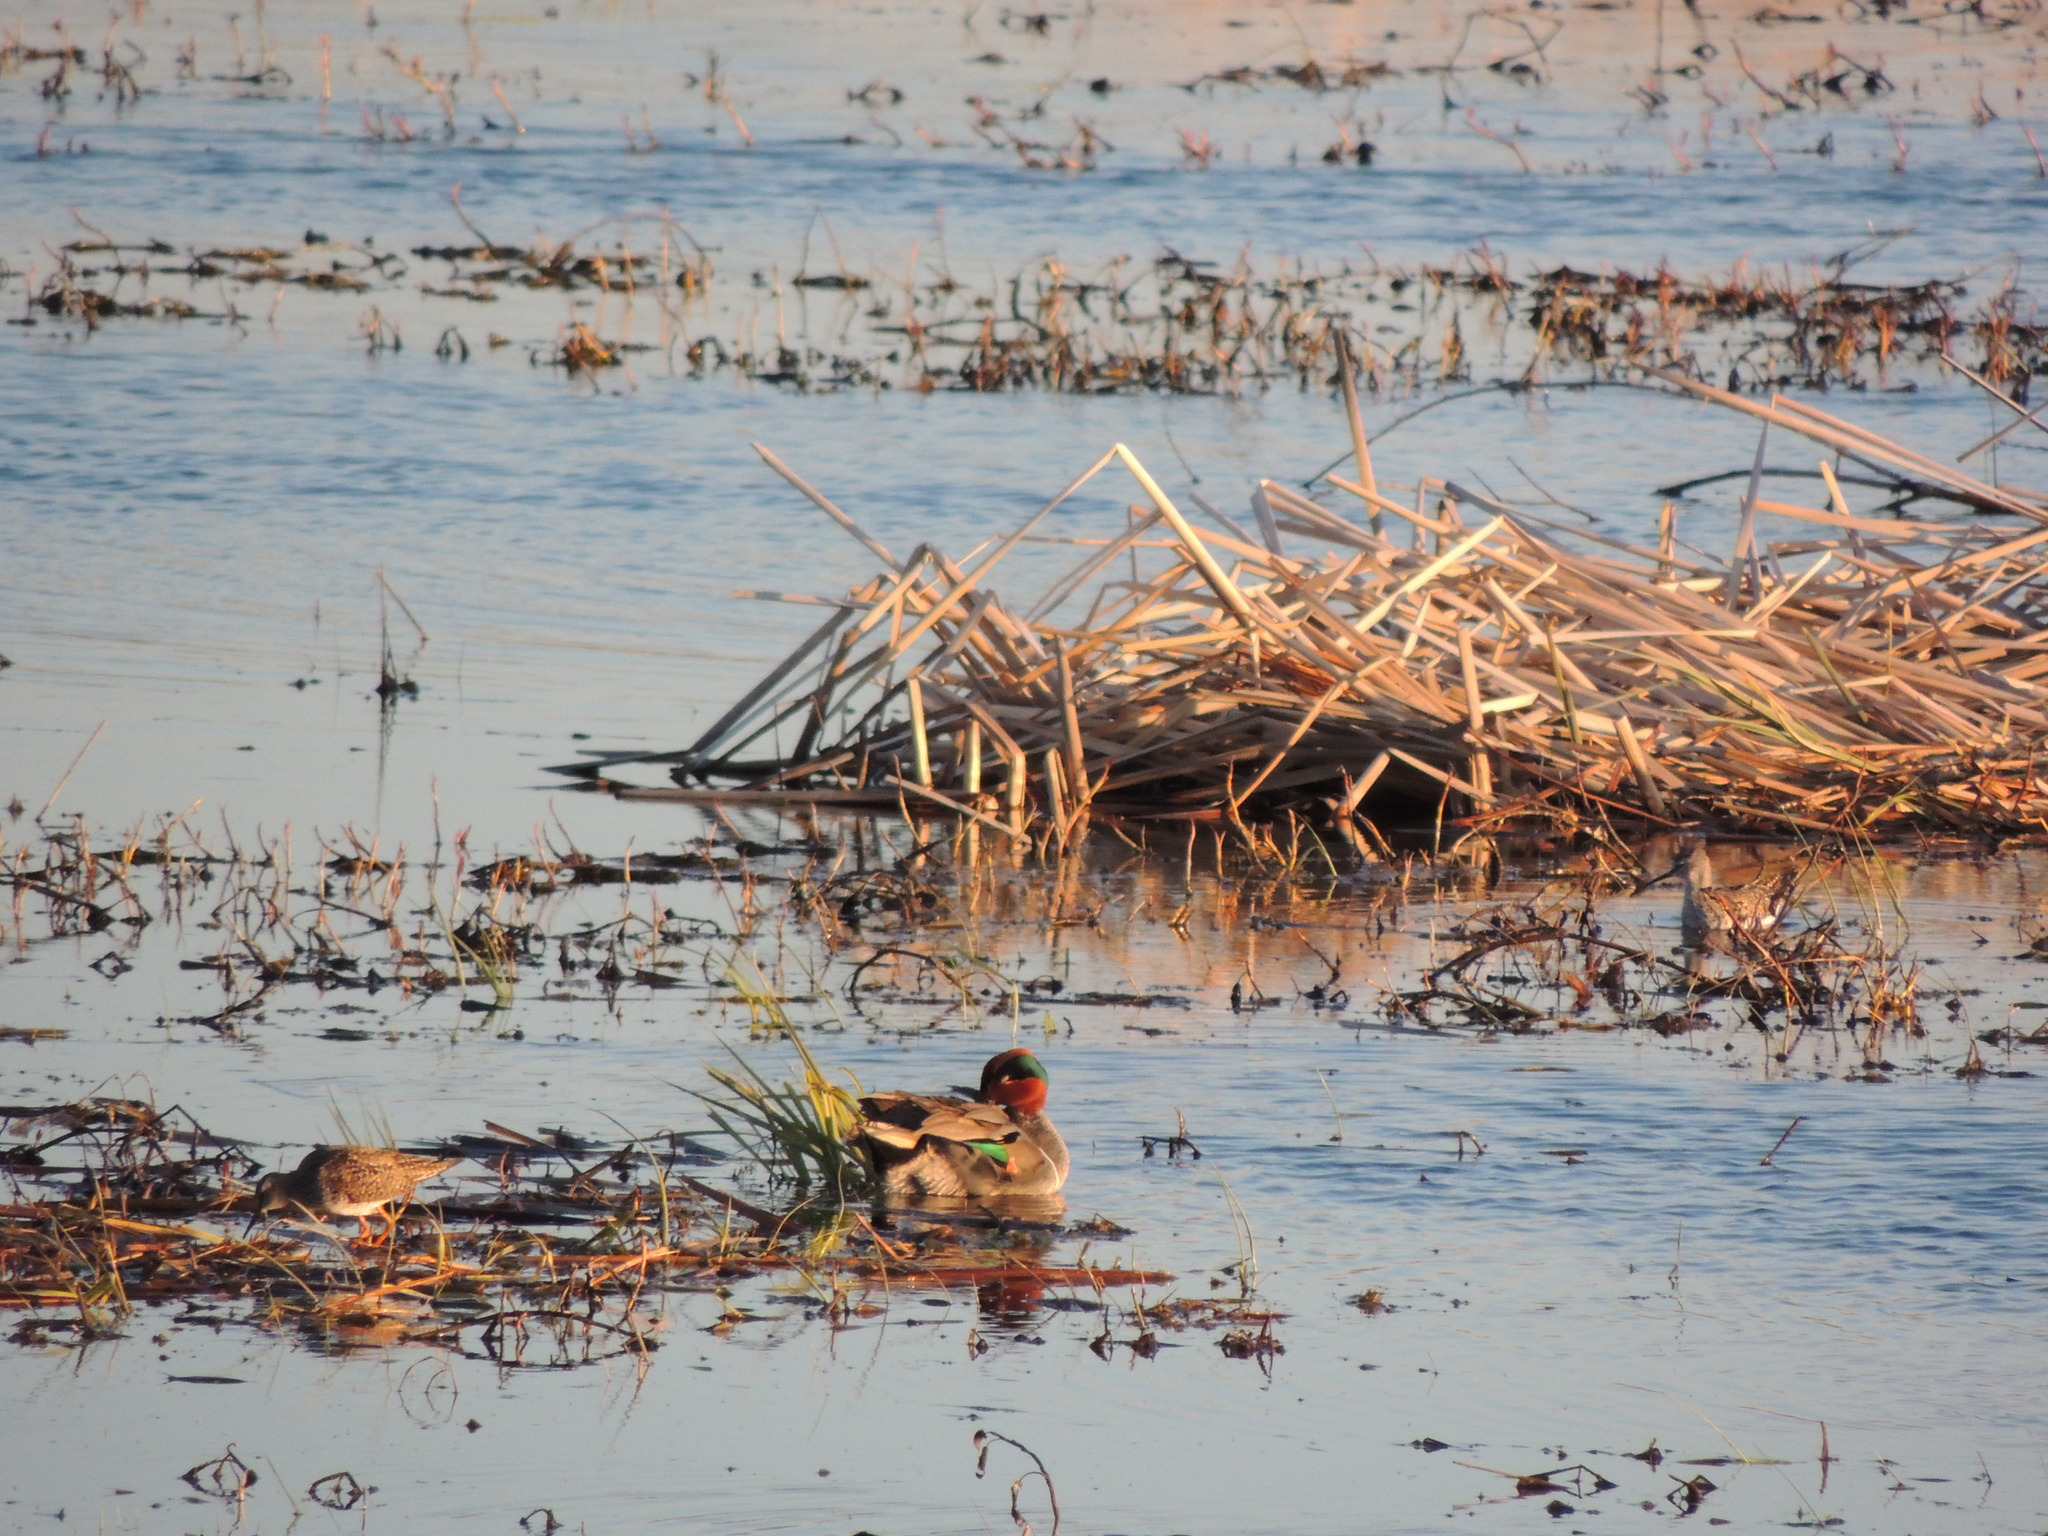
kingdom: Animalia
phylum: Chordata
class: Aves
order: Anseriformes
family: Anatidae
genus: Anas
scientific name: Anas crecca
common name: Eurasian teal
